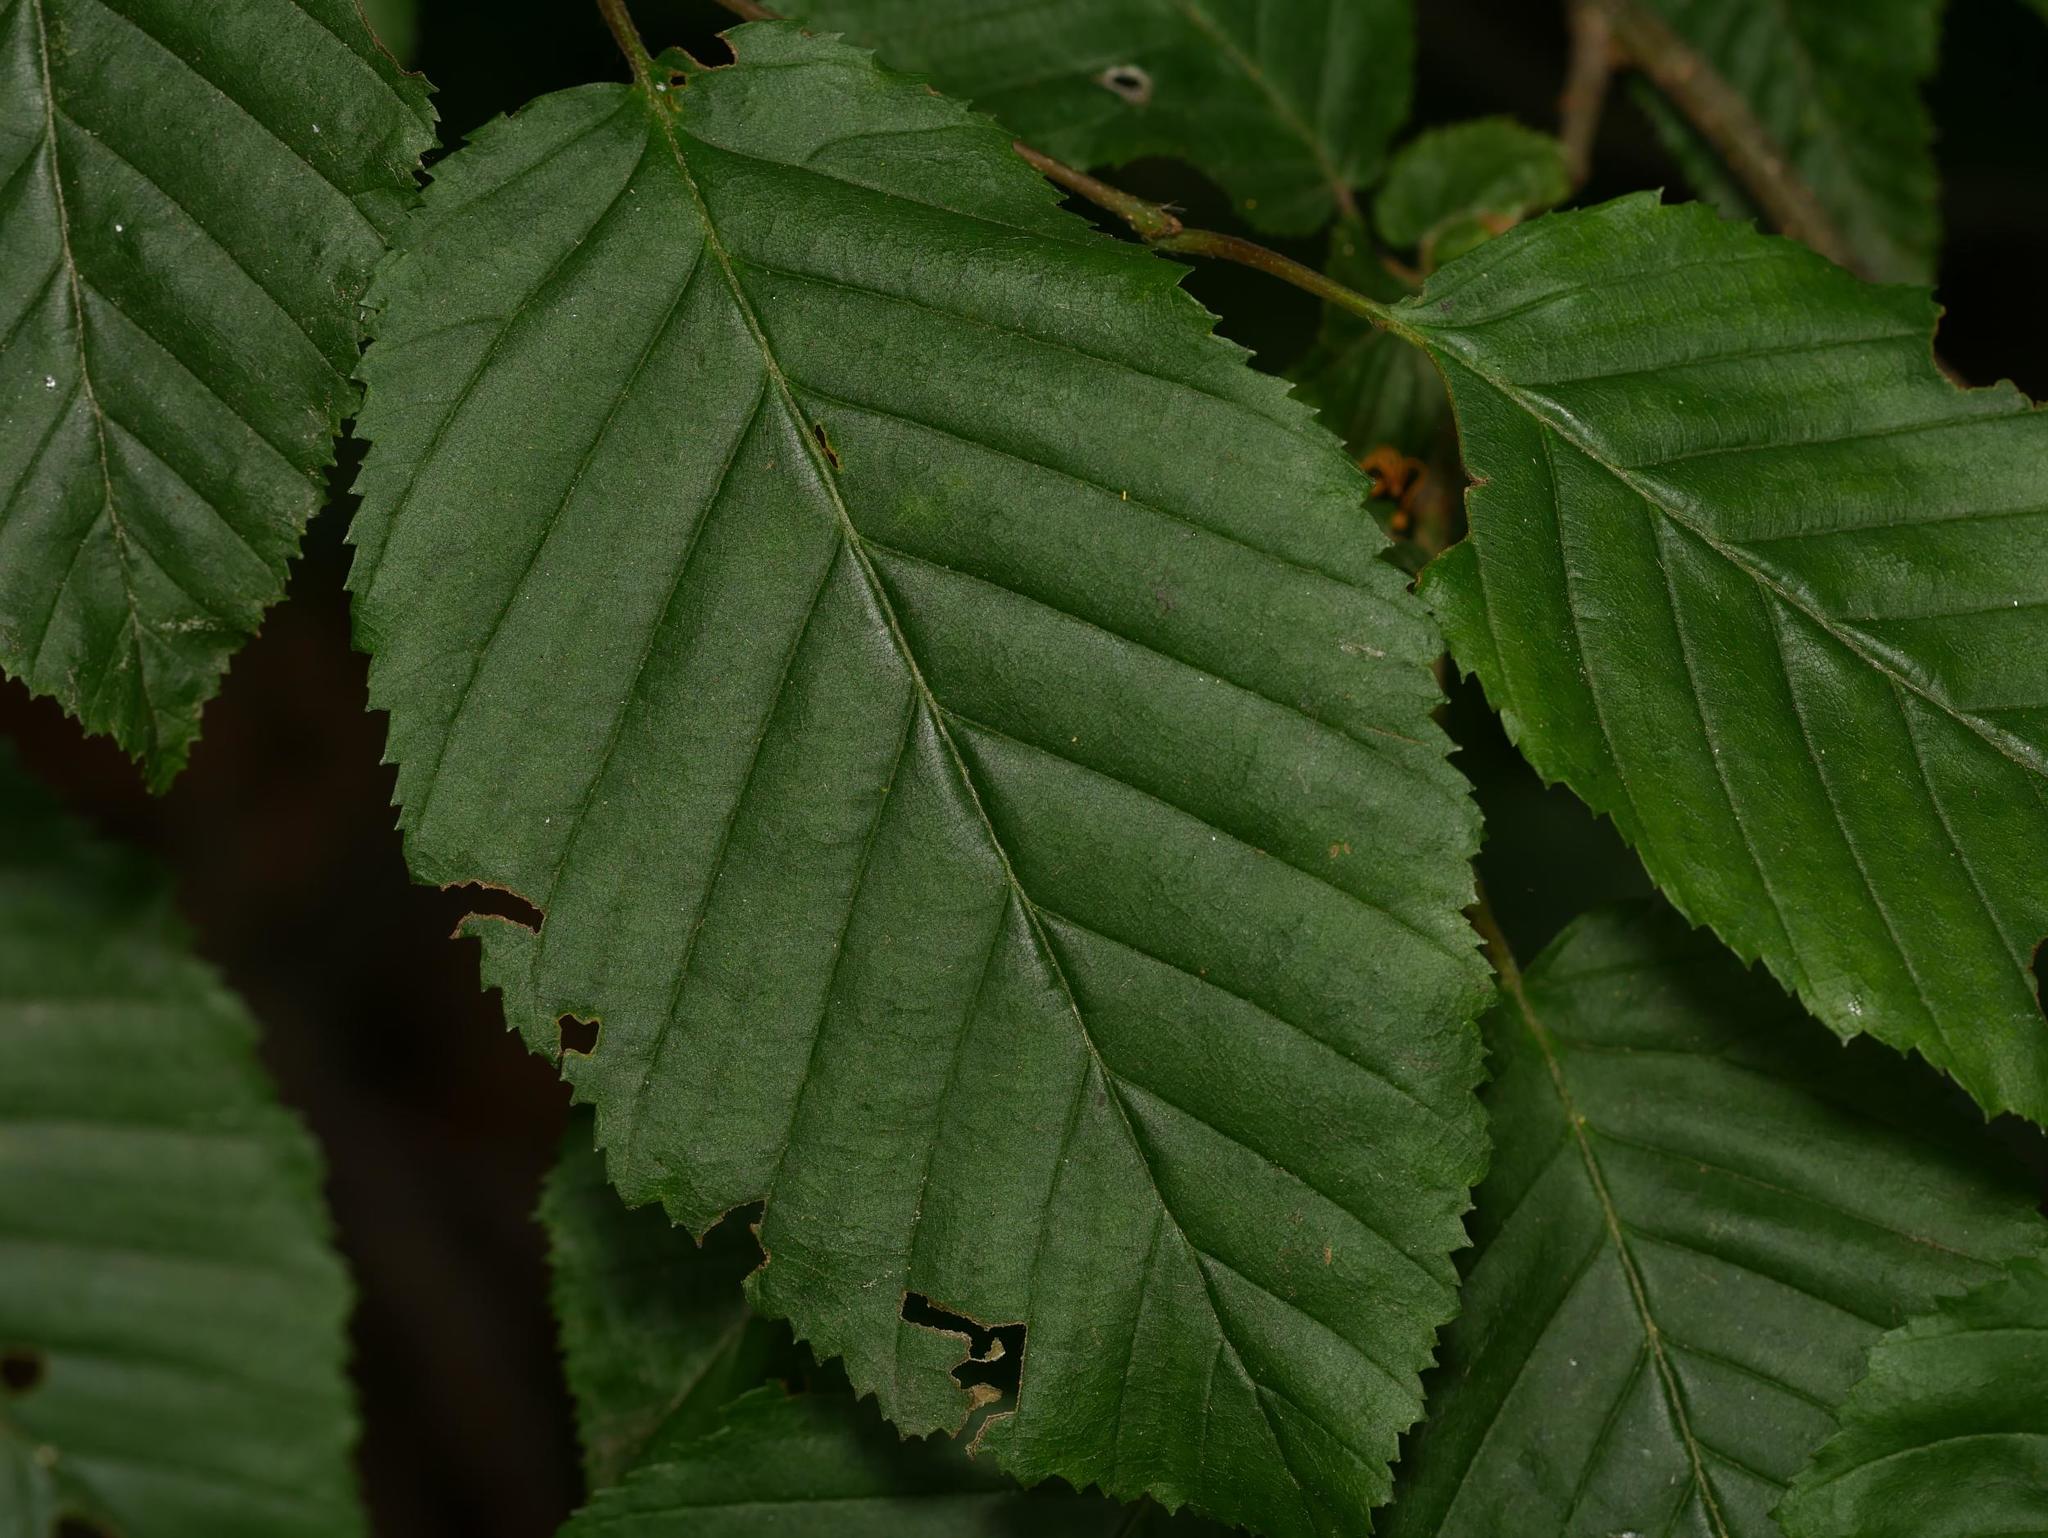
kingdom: Plantae
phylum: Tracheophyta
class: Magnoliopsida
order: Fagales
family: Betulaceae
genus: Carpinus
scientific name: Carpinus betulus
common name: Hornbeam
